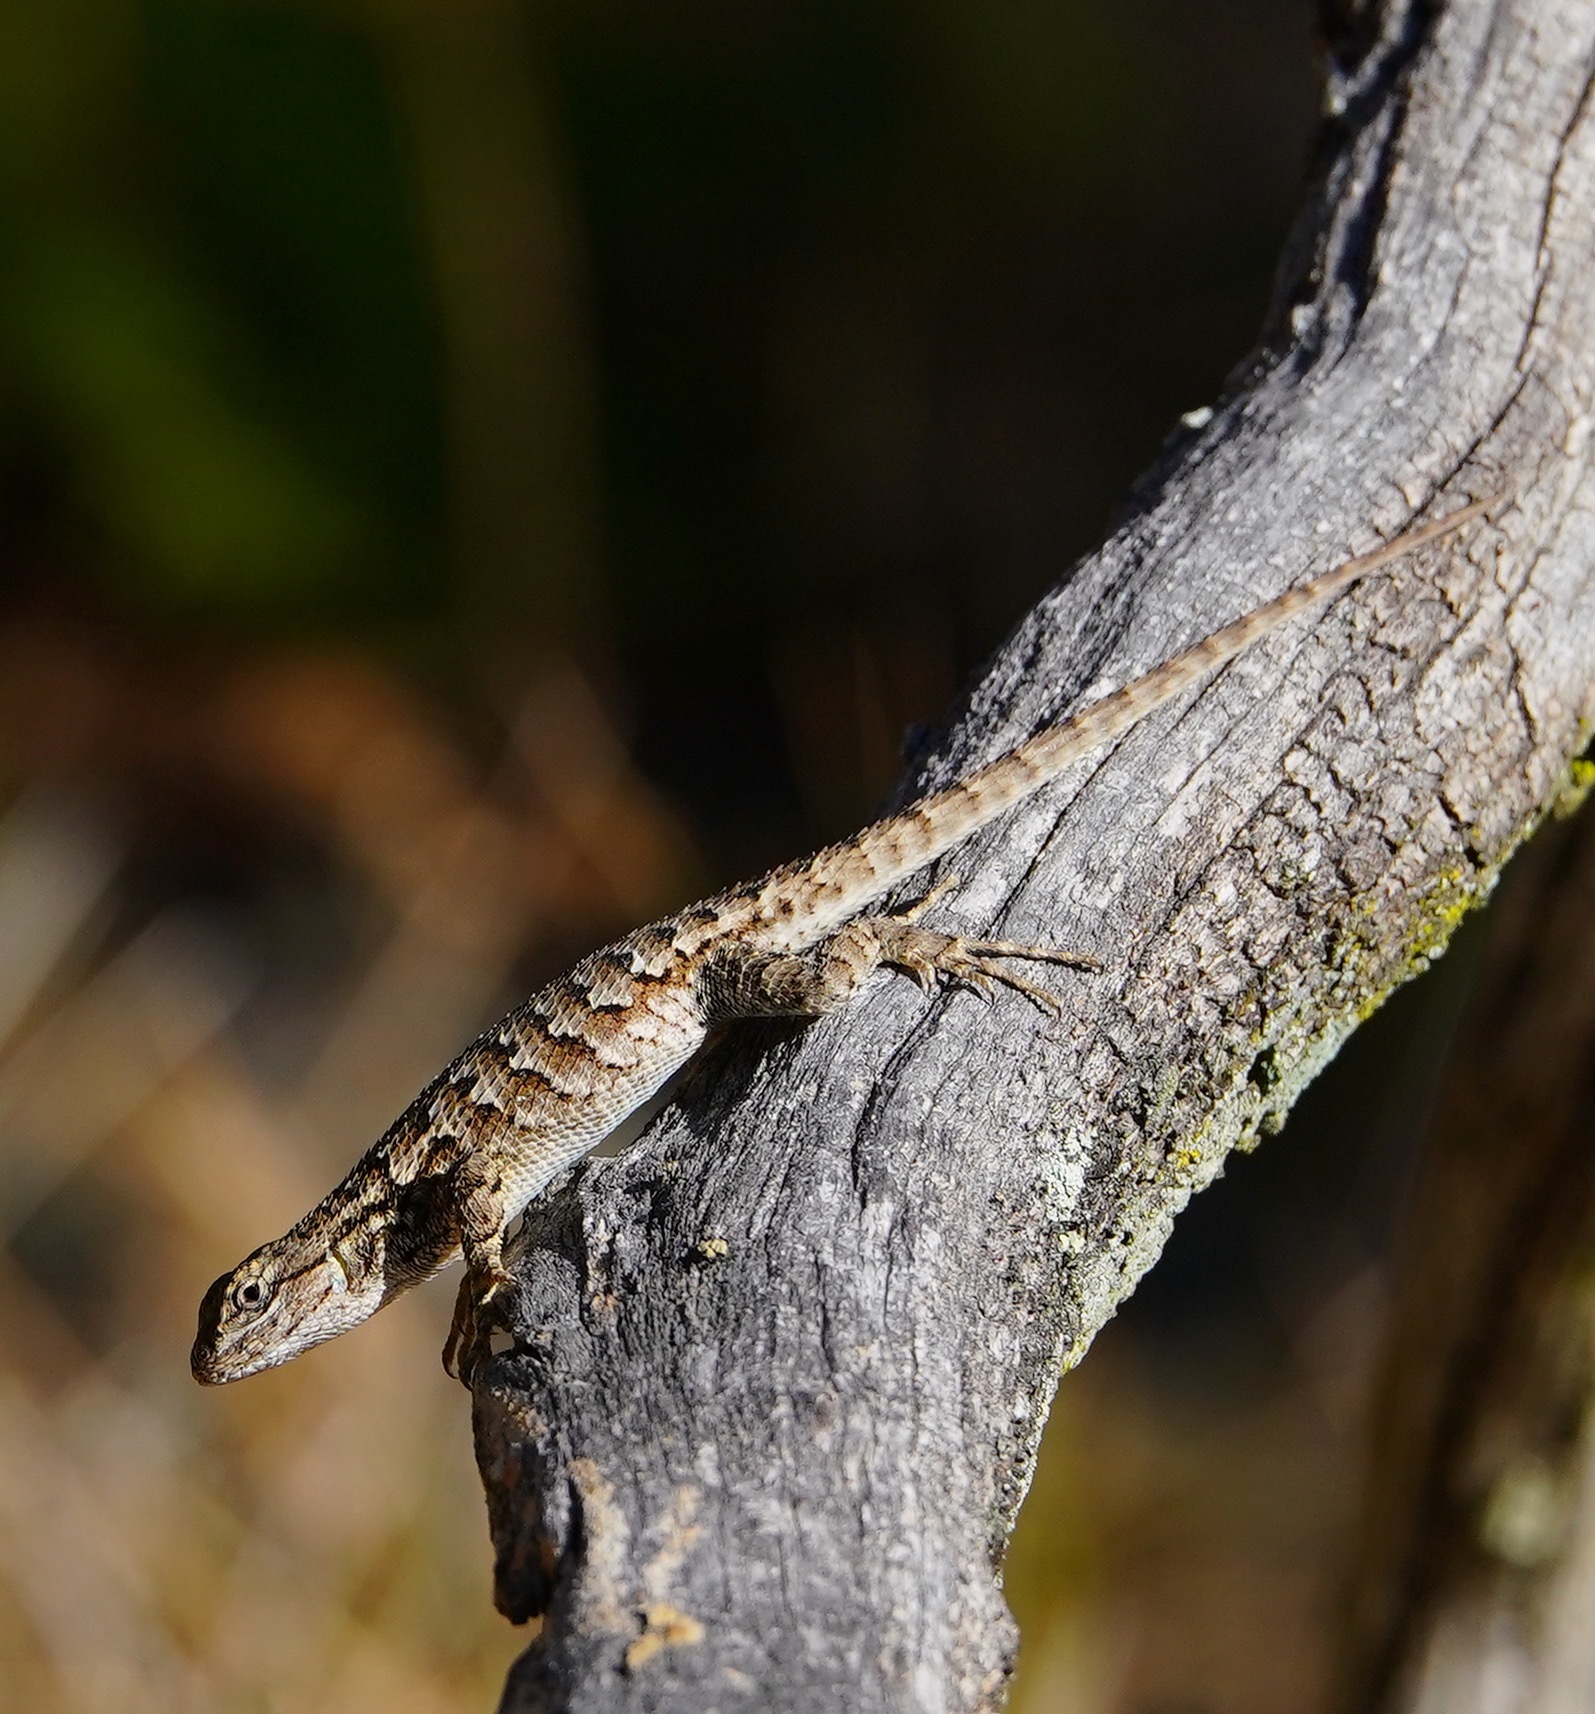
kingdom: Animalia
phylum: Chordata
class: Squamata
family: Phrynosomatidae
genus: Sceloporus
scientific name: Sceloporus occidentalis
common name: Western fence lizard
